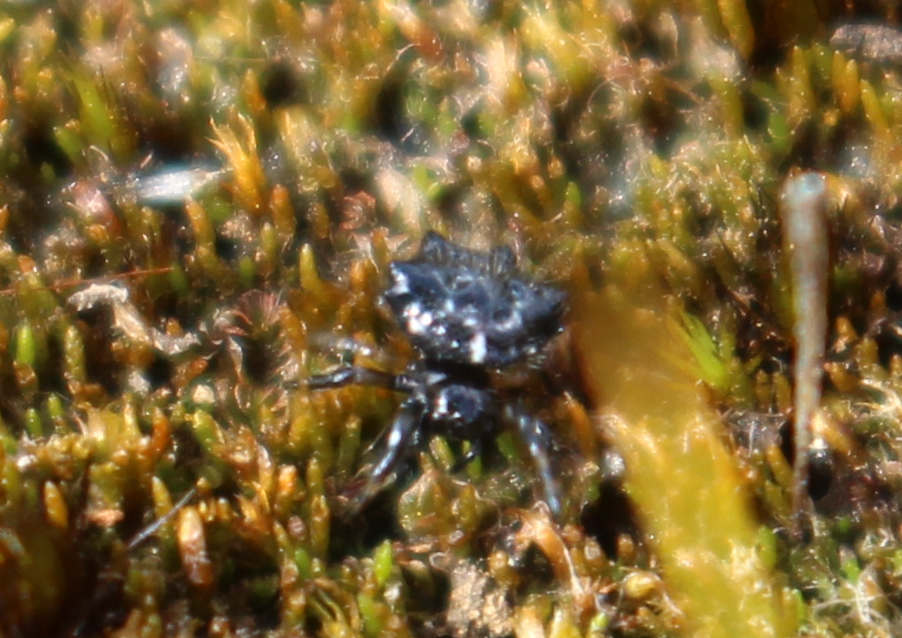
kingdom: Animalia
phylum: Arthropoda
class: Arachnida
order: Araneae
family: Araneidae
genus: Austracantha
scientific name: Austracantha minax
